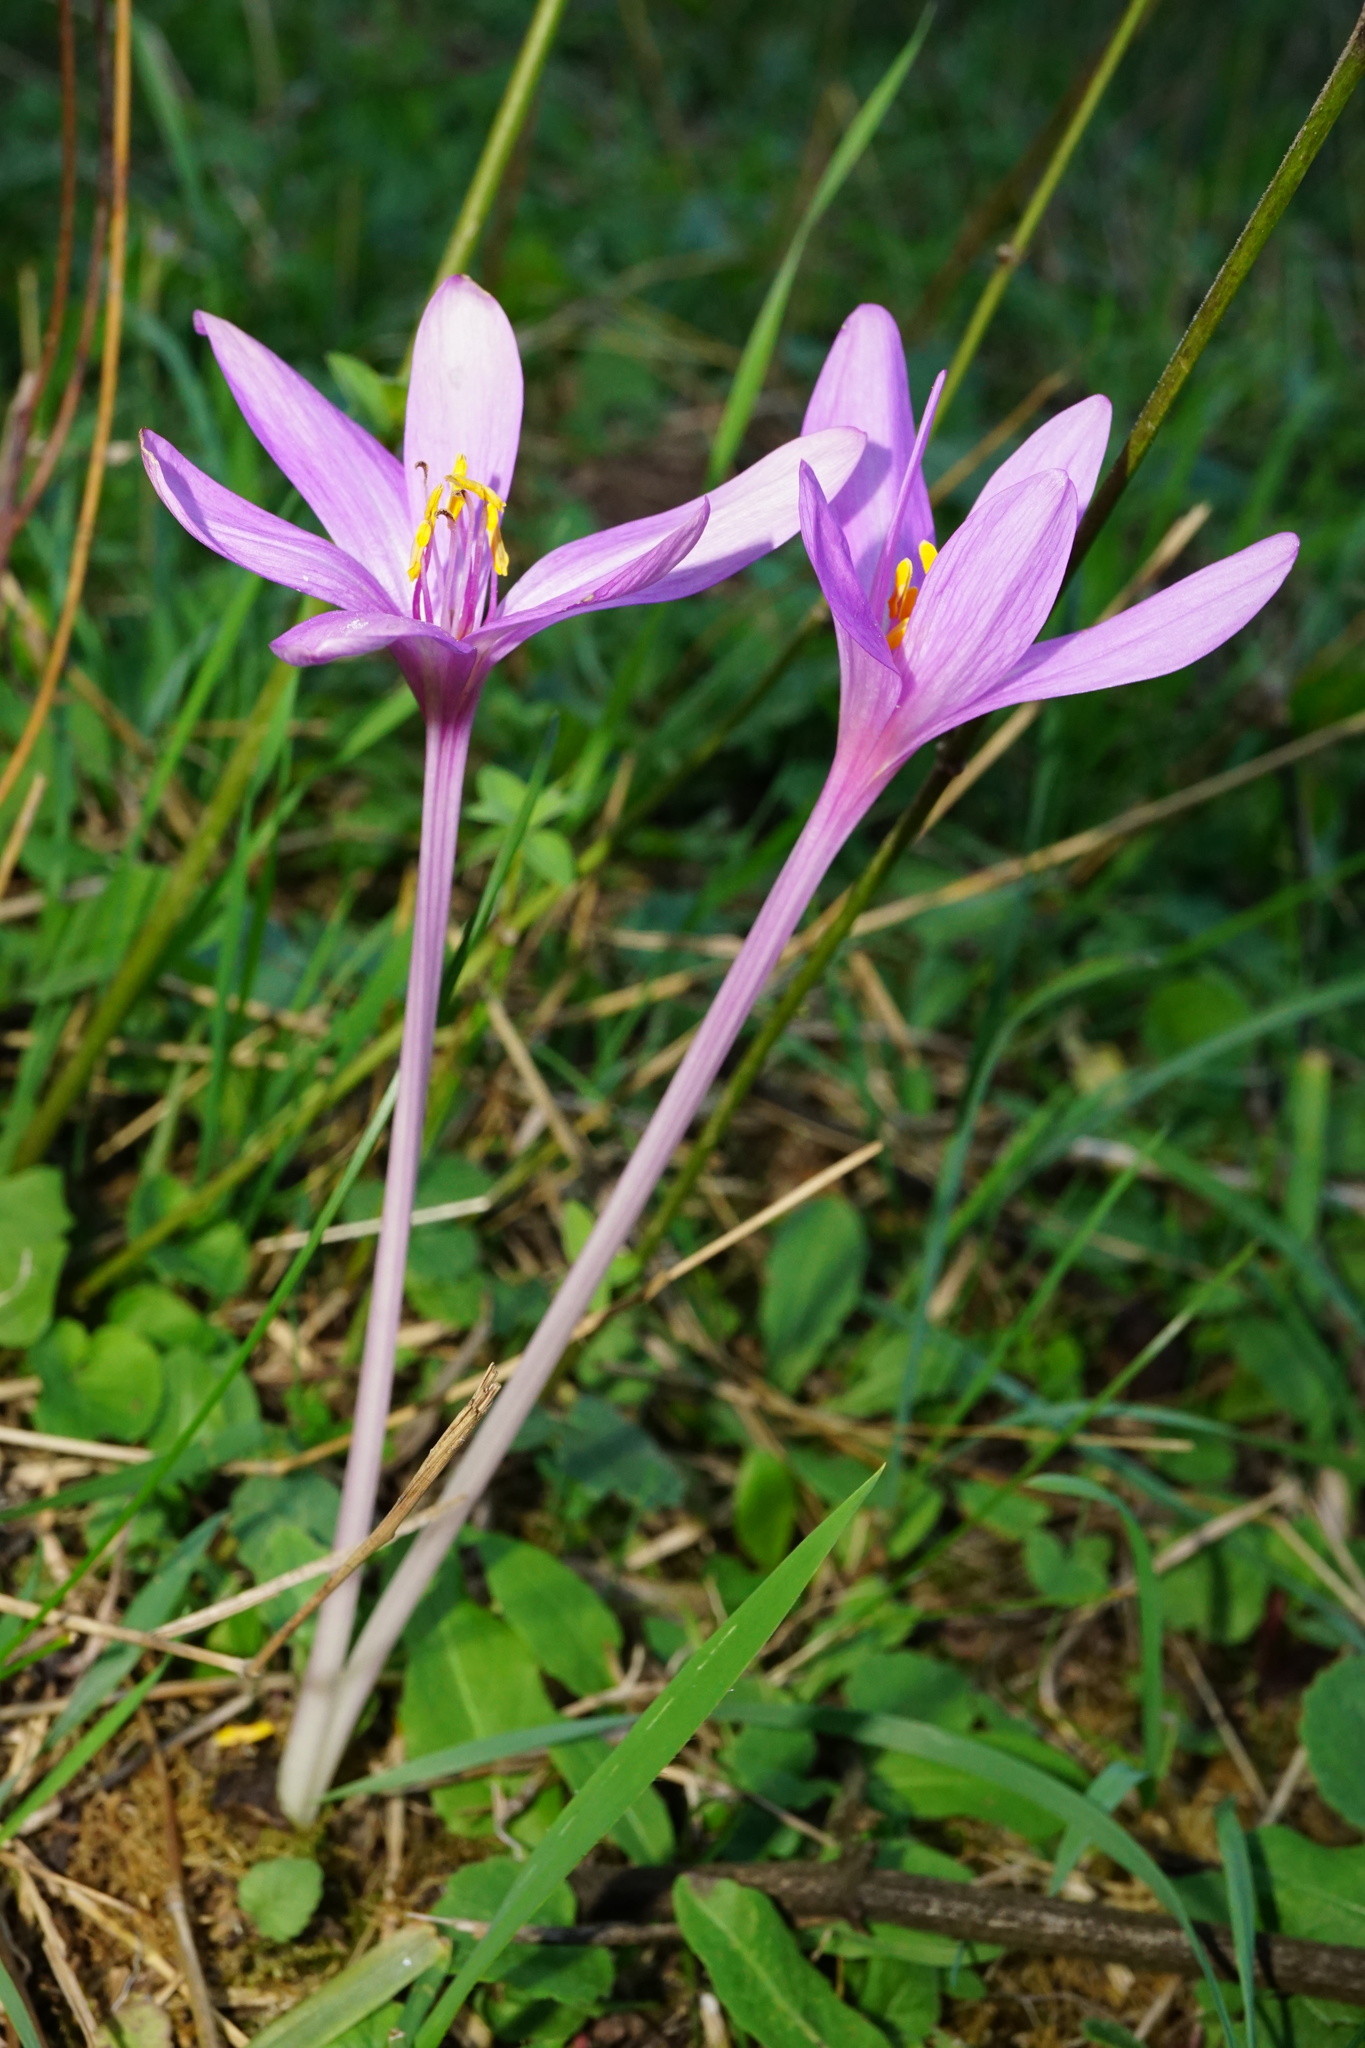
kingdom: Plantae
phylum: Tracheophyta
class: Liliopsida
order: Liliales
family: Colchicaceae
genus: Colchicum
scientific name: Colchicum autumnale
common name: Autumn crocus
